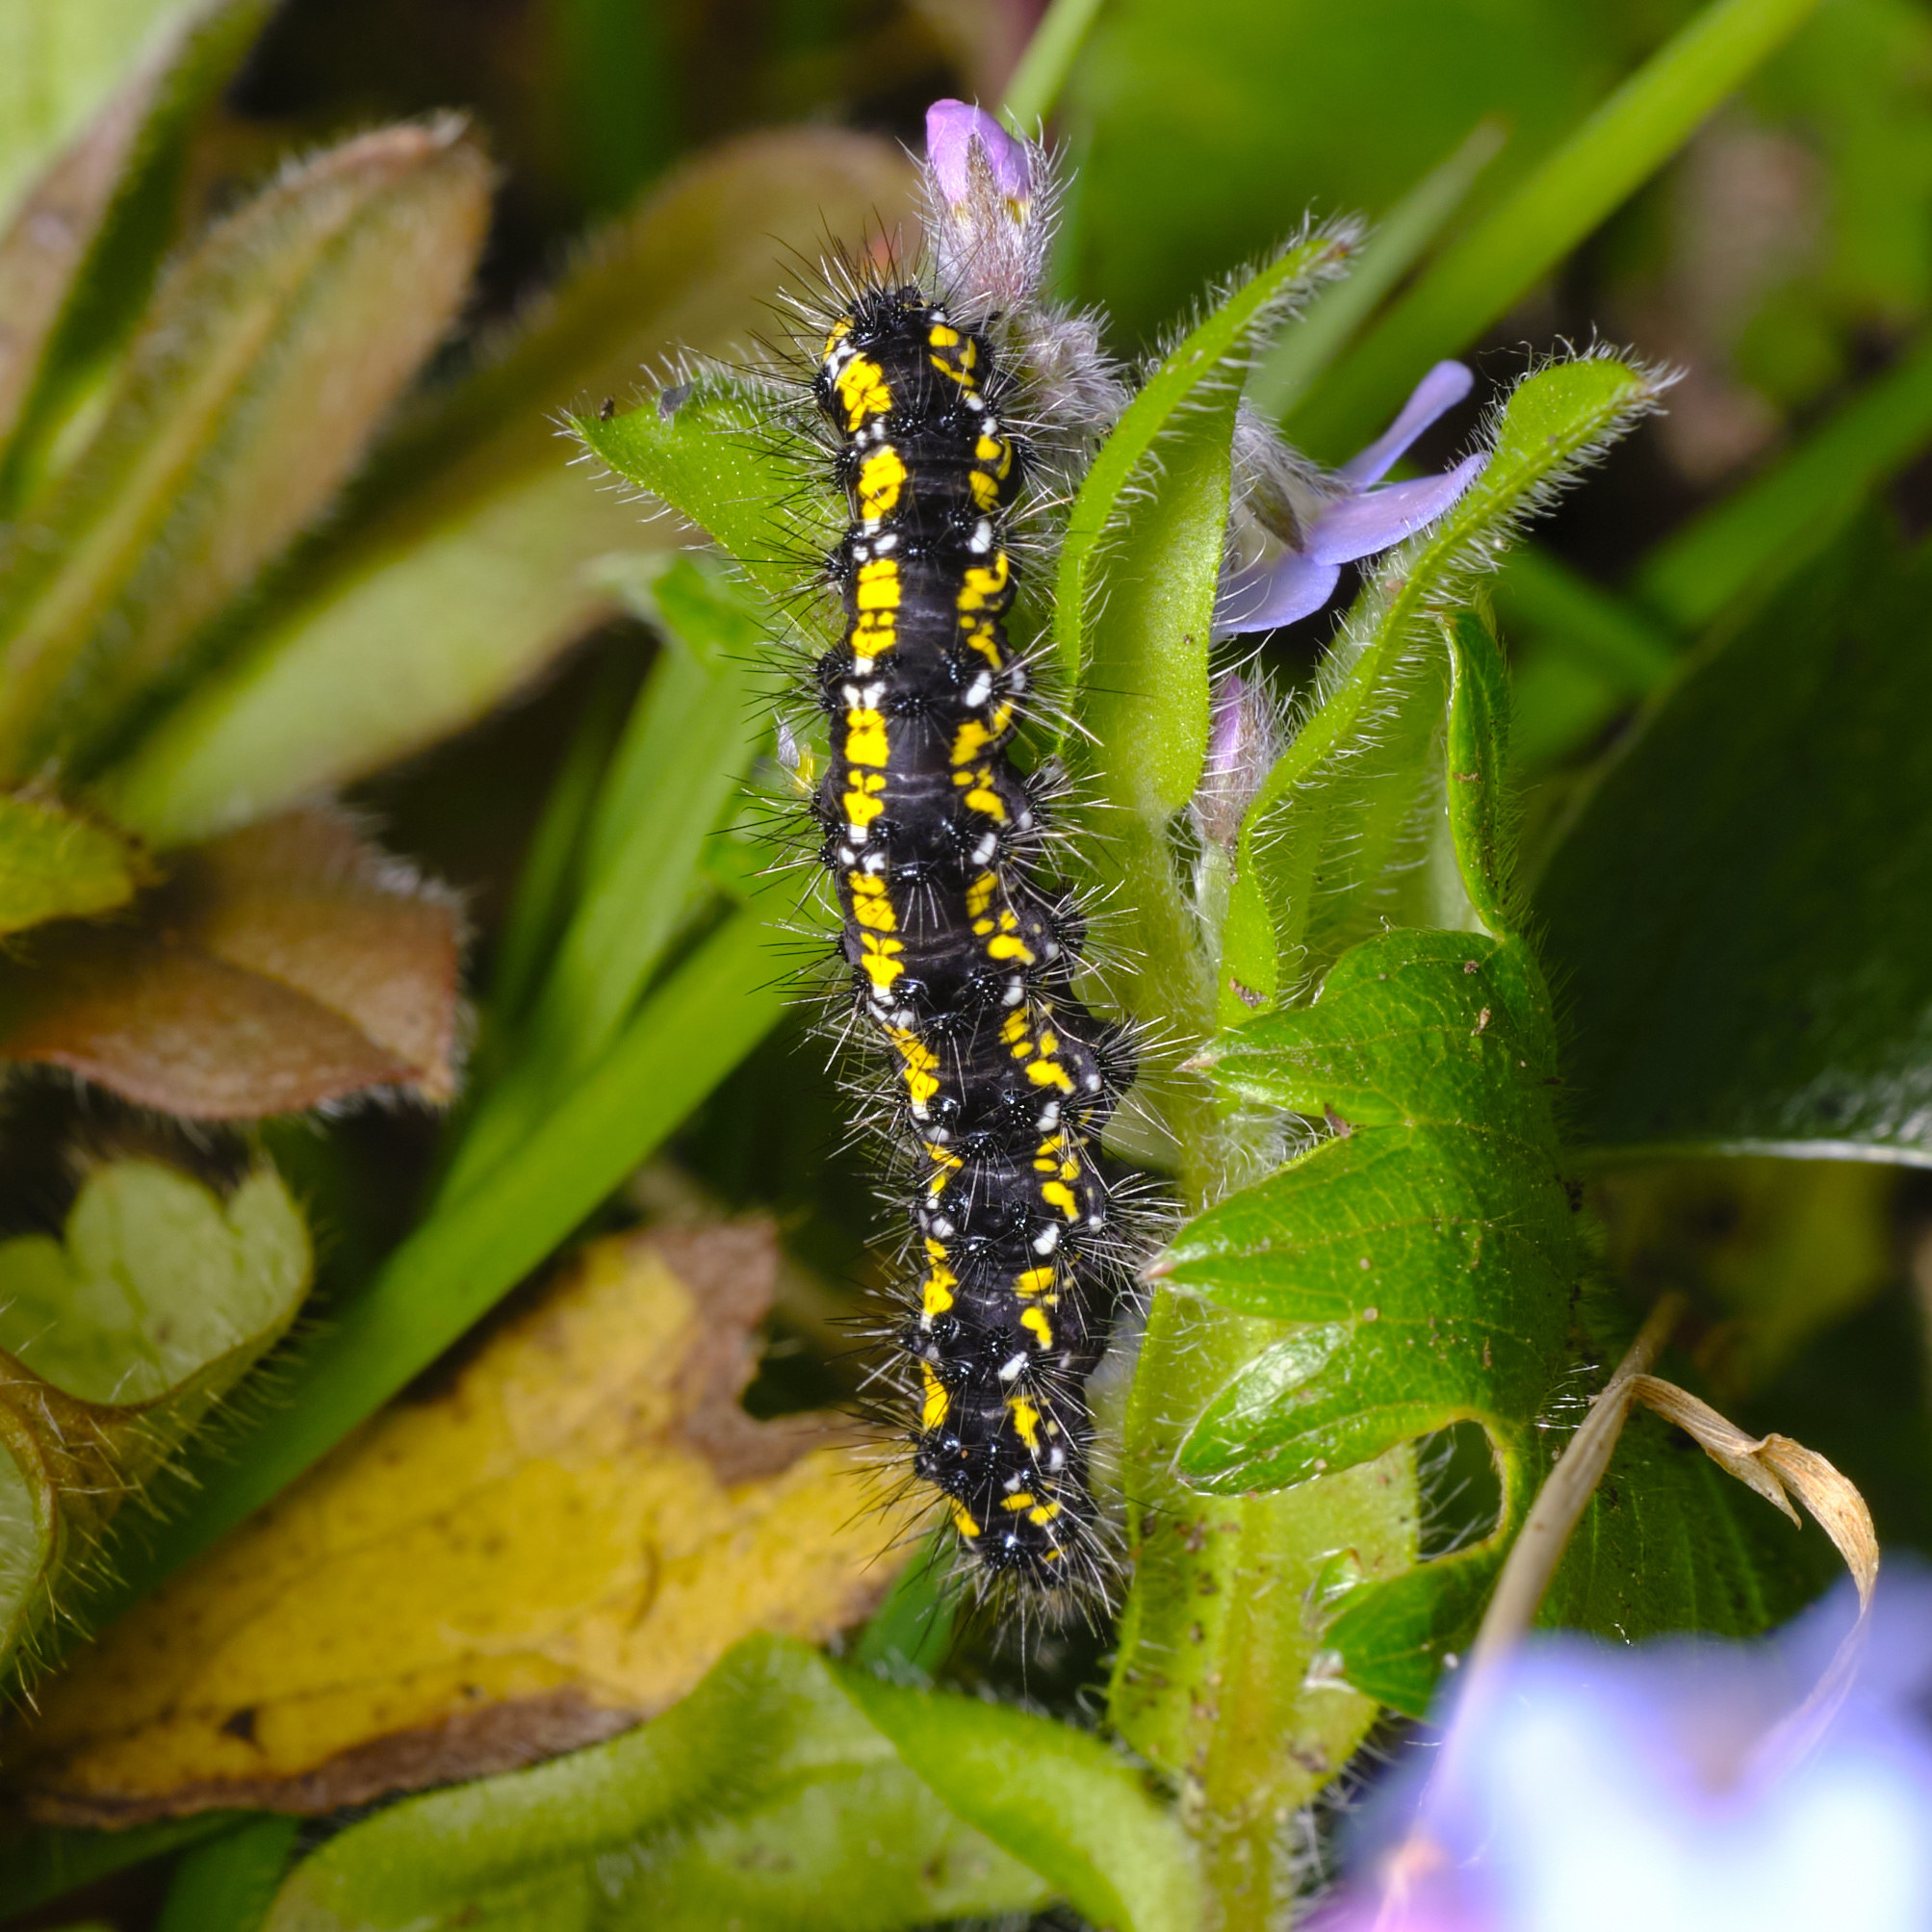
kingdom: Animalia
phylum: Arthropoda
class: Insecta
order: Lepidoptera
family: Erebidae
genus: Callimorpha
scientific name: Callimorpha dominula
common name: Scarlet tiger
